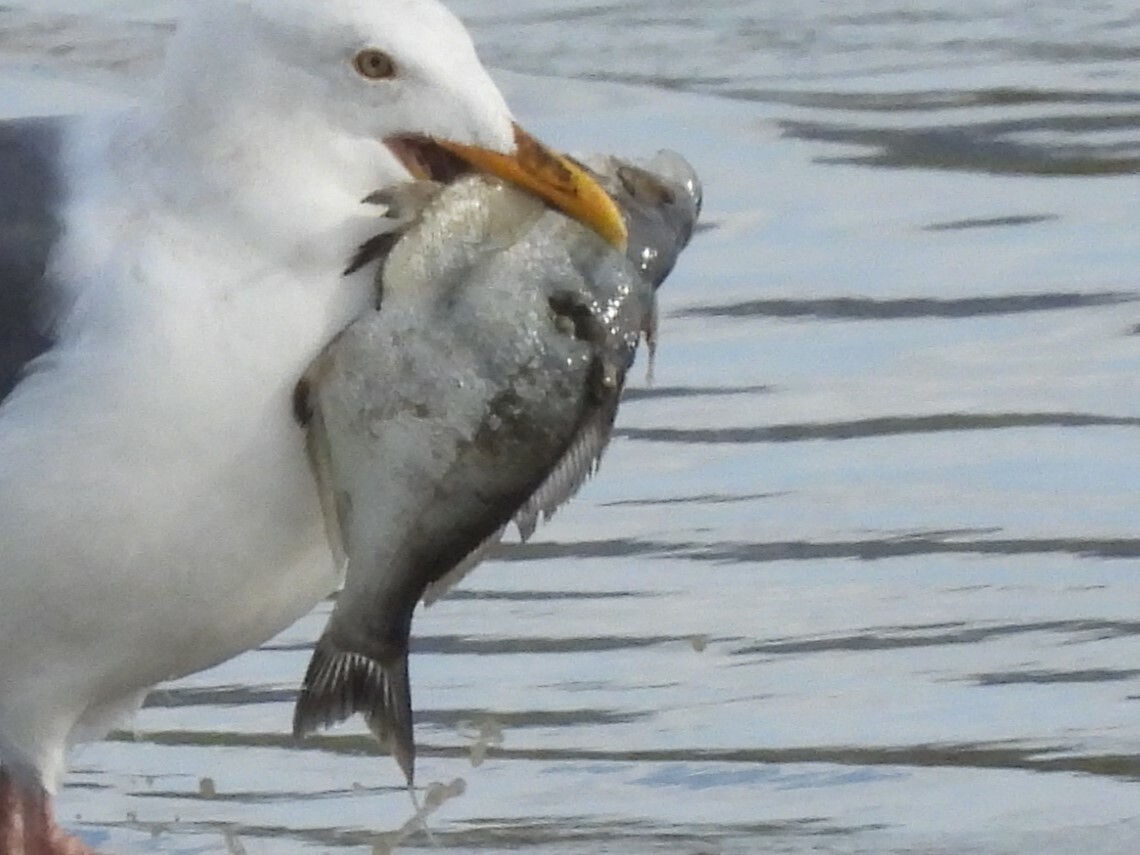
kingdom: Animalia
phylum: Chordata
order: Perciformes
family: Embiotocidae
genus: Hyperprosopon
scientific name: Hyperprosopon argenteum
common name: Walleye surfperch
